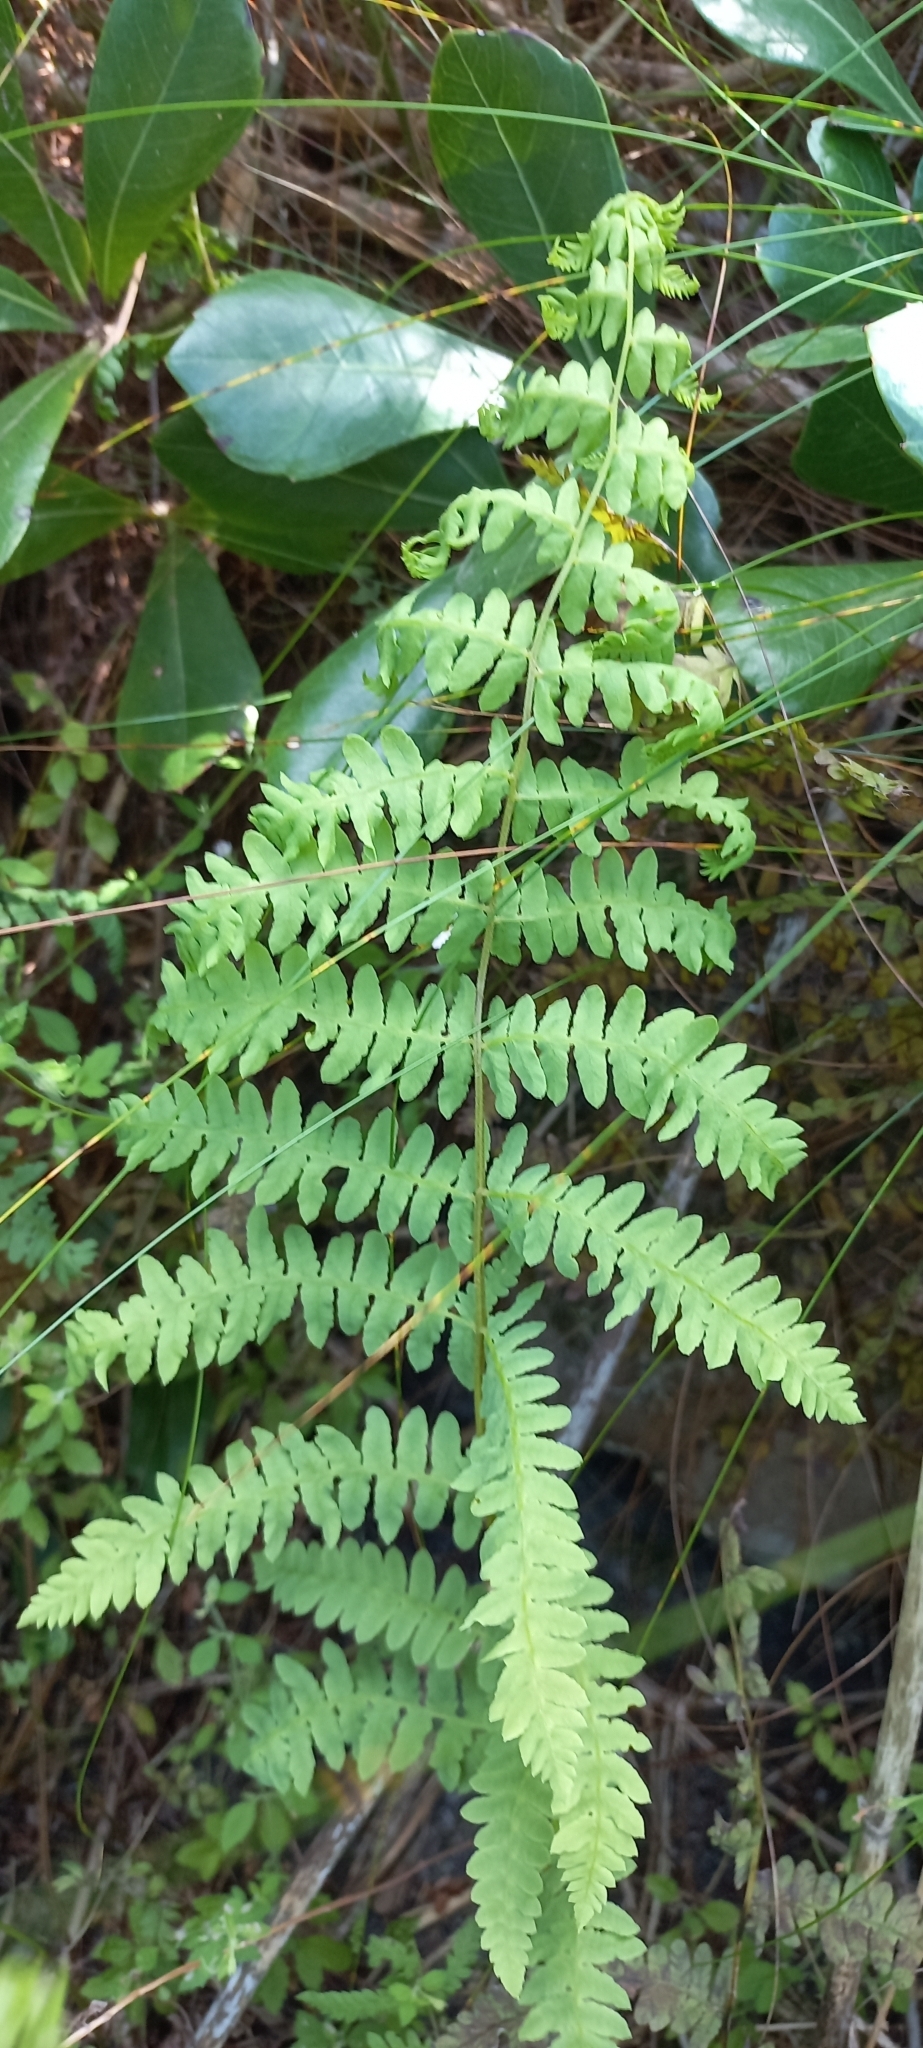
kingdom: Plantae
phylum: Tracheophyta
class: Polypodiopsida
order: Polypodiales
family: Thelypteridaceae
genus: Thelypteris
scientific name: Thelypteris confluens
